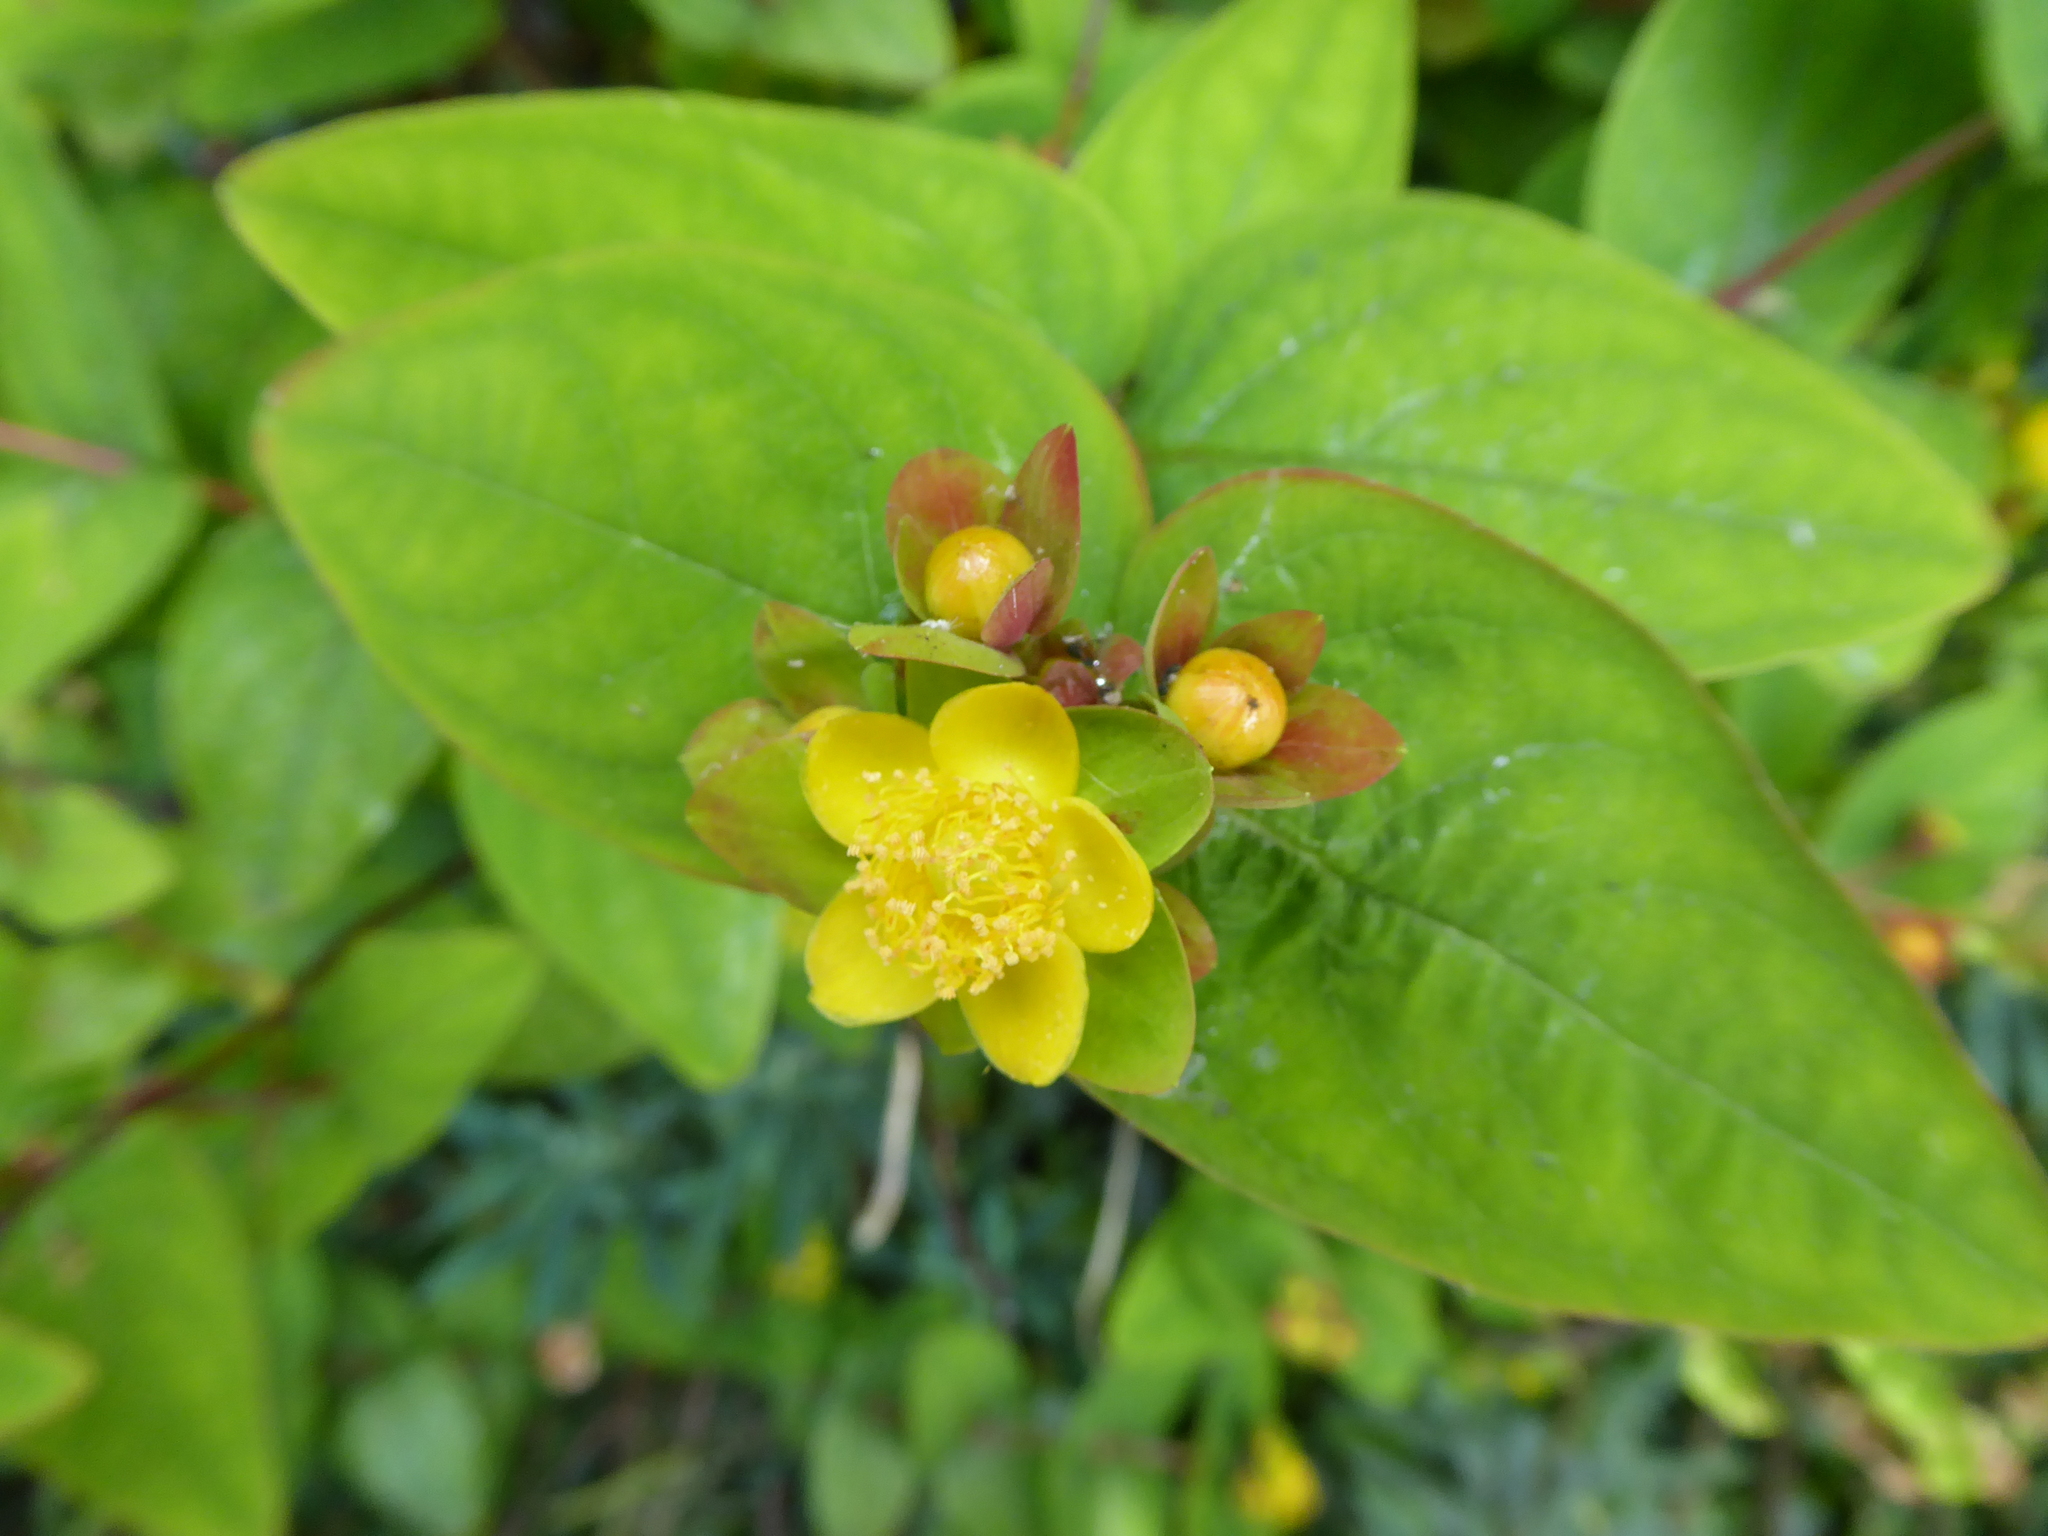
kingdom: Plantae
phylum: Tracheophyta
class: Magnoliopsida
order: Malpighiales
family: Hypericaceae
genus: Hypericum
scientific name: Hypericum androsaemum
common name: Sweet-amber
